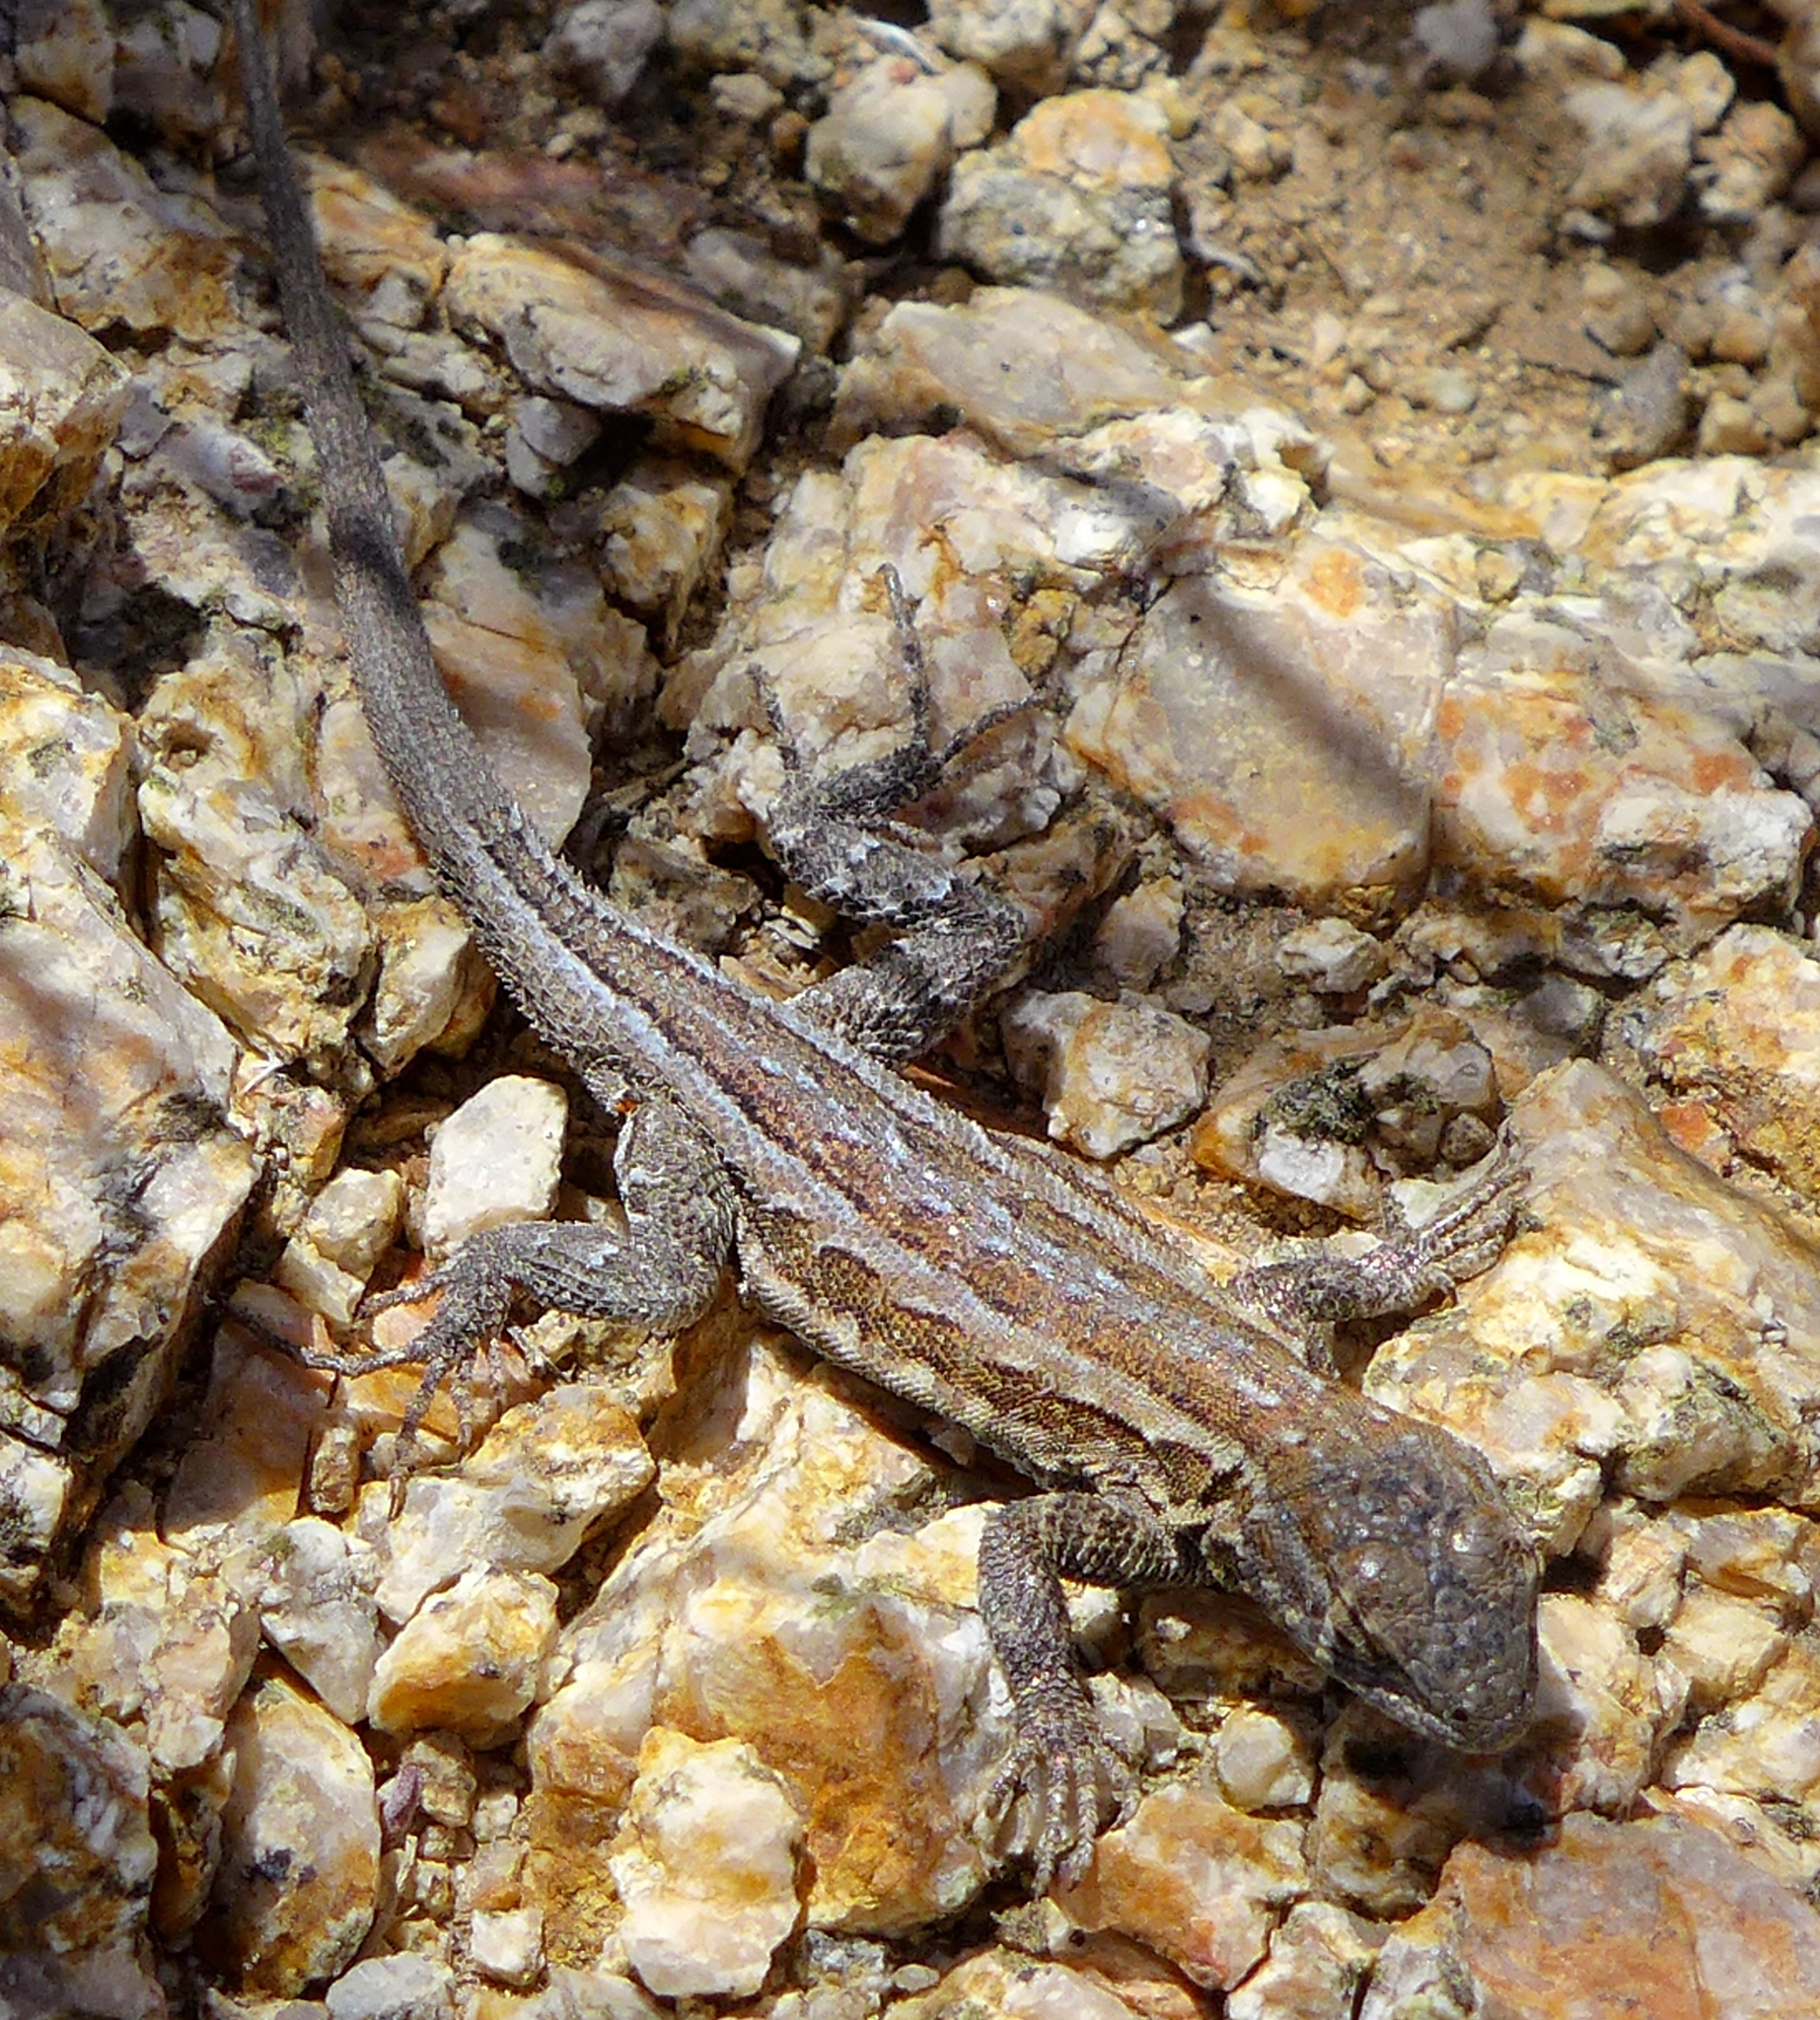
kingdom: Animalia
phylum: Chordata
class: Squamata
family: Phrynosomatidae
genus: Uta
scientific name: Uta stansburiana
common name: Side-blotched lizard
